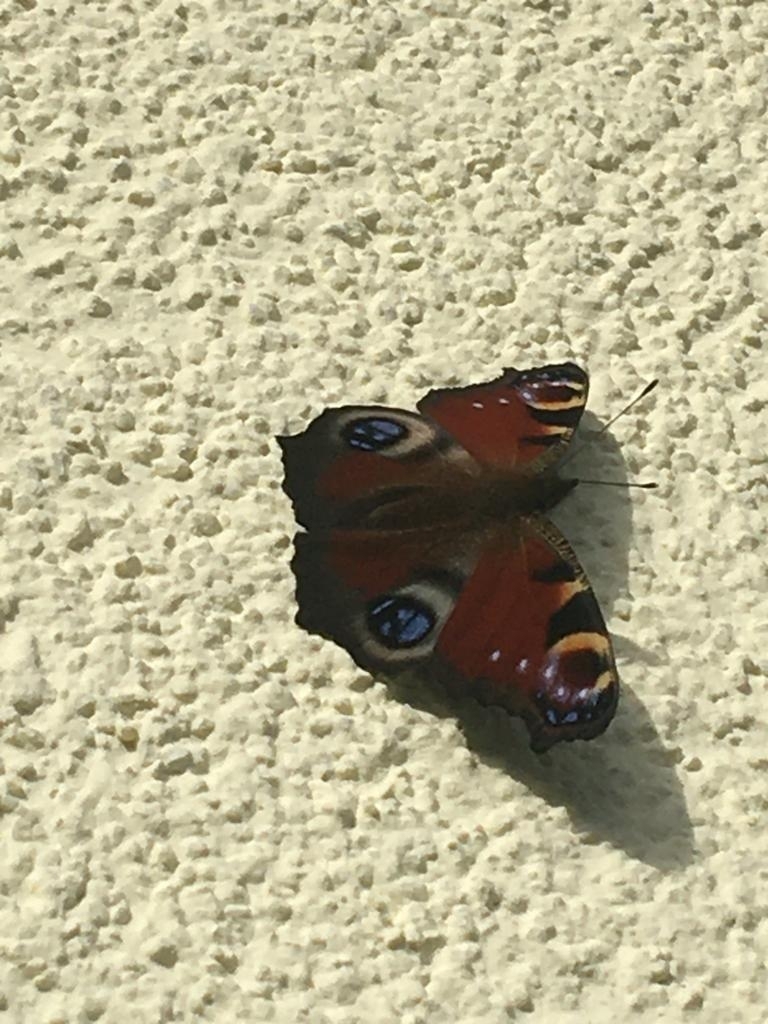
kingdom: Animalia
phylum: Arthropoda
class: Insecta
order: Lepidoptera
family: Nymphalidae
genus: Aglais
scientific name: Aglais io
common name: Peacock
